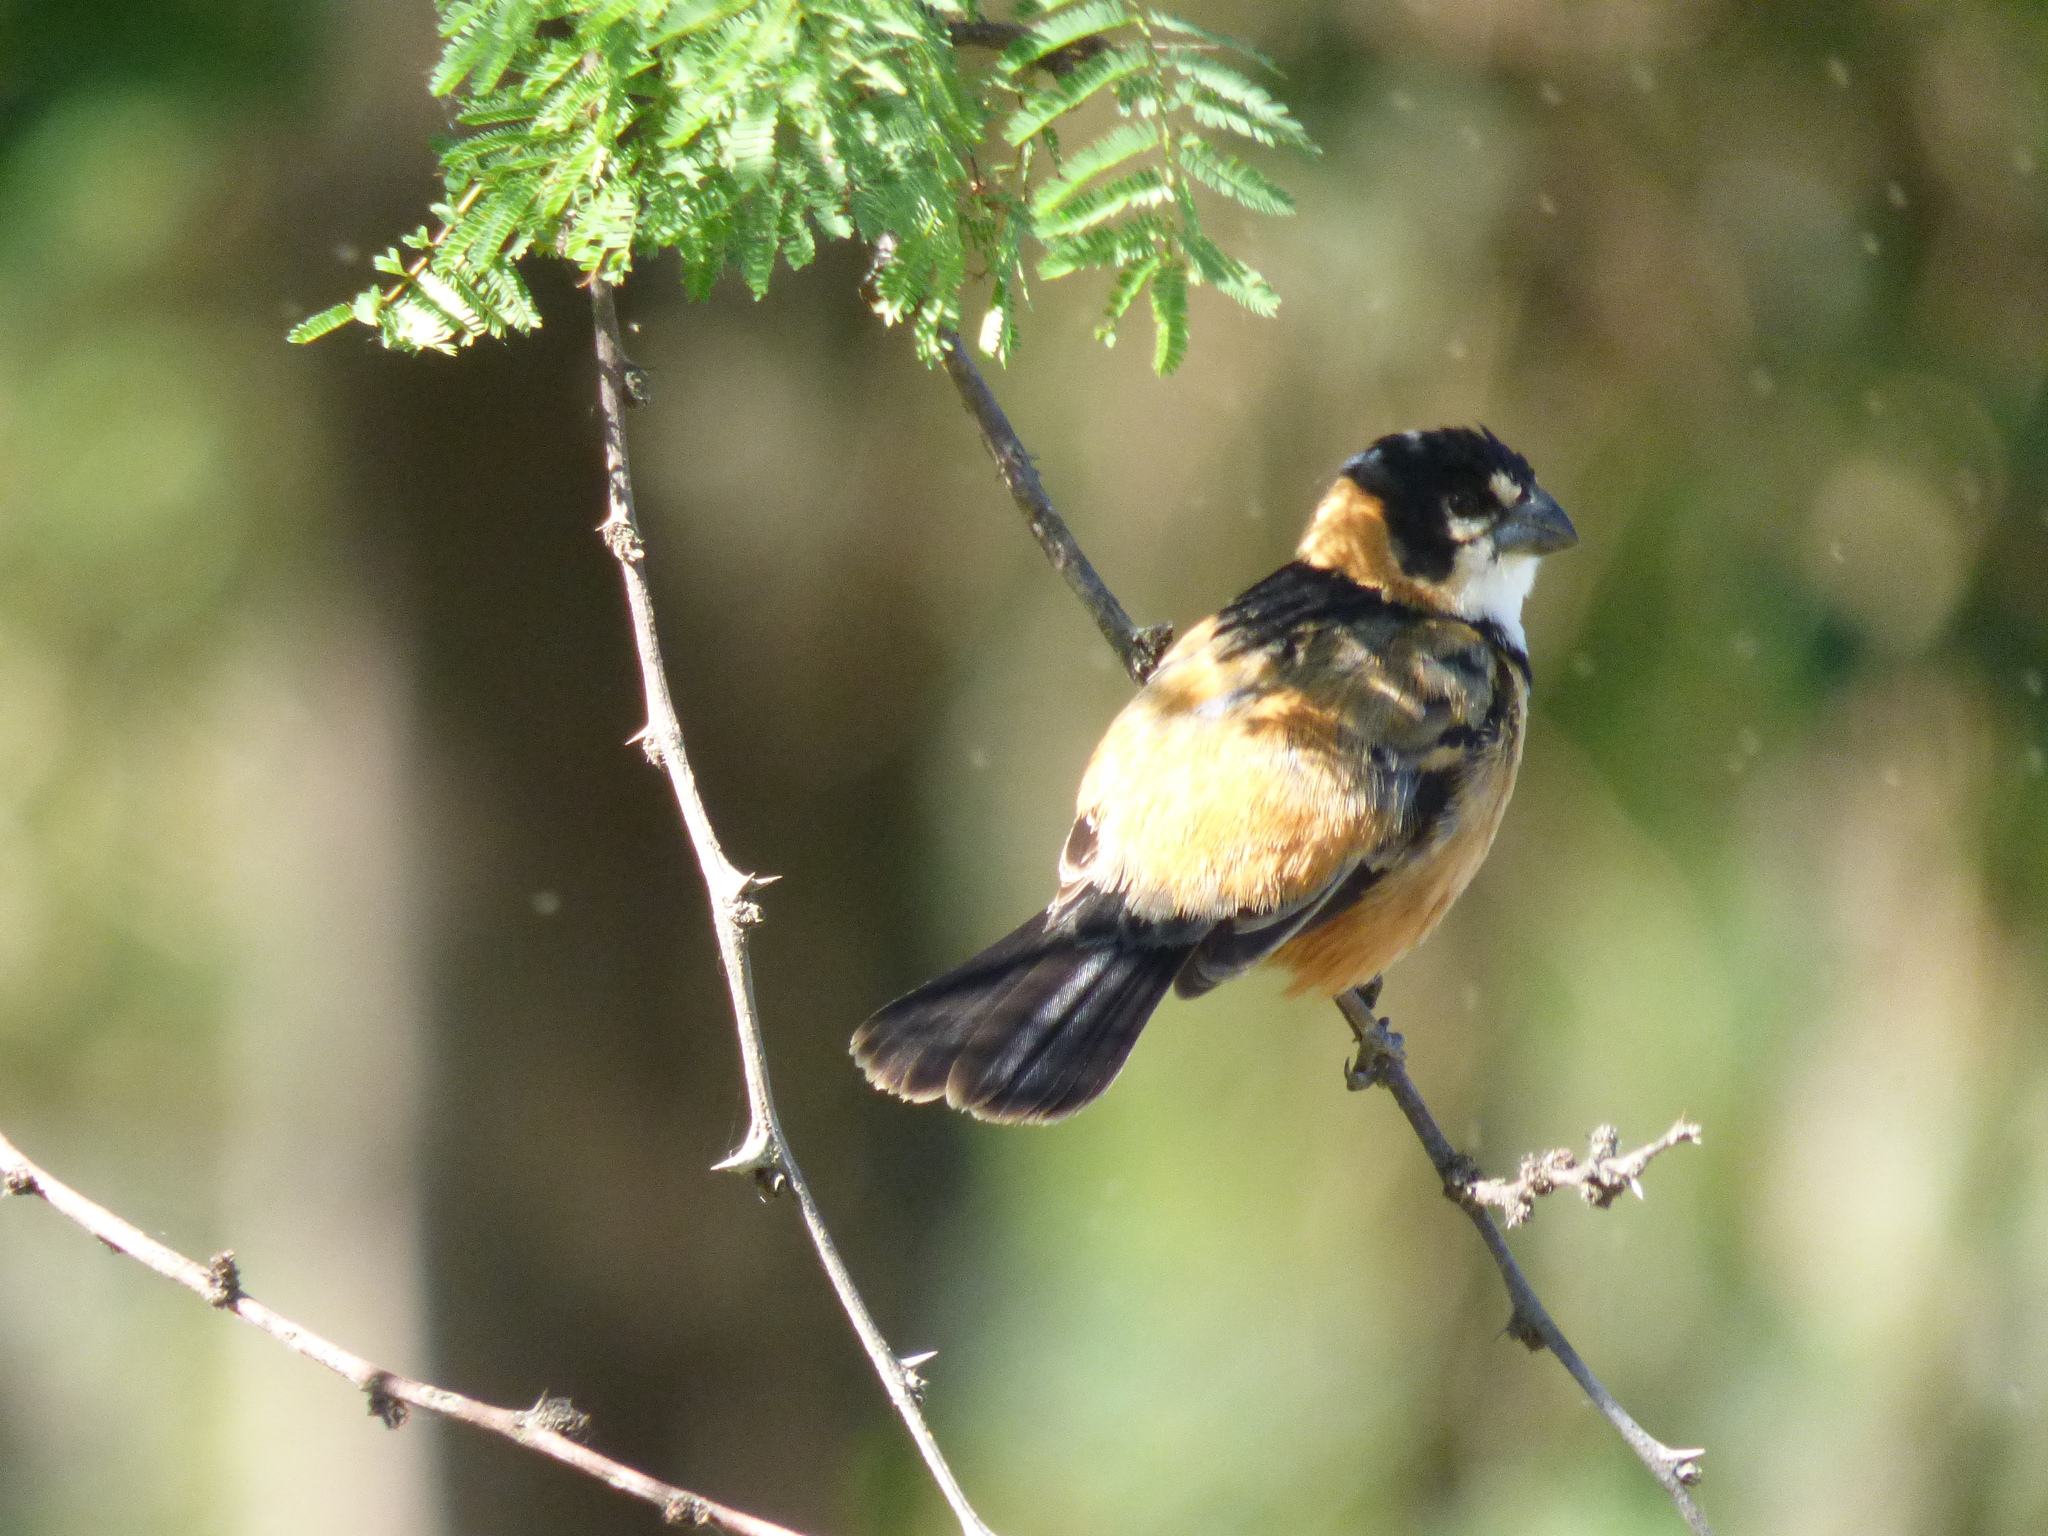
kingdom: Animalia
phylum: Chordata
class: Aves
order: Passeriformes
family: Thraupidae
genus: Sporophila
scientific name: Sporophila collaris
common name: Rusty-collared seedeater
